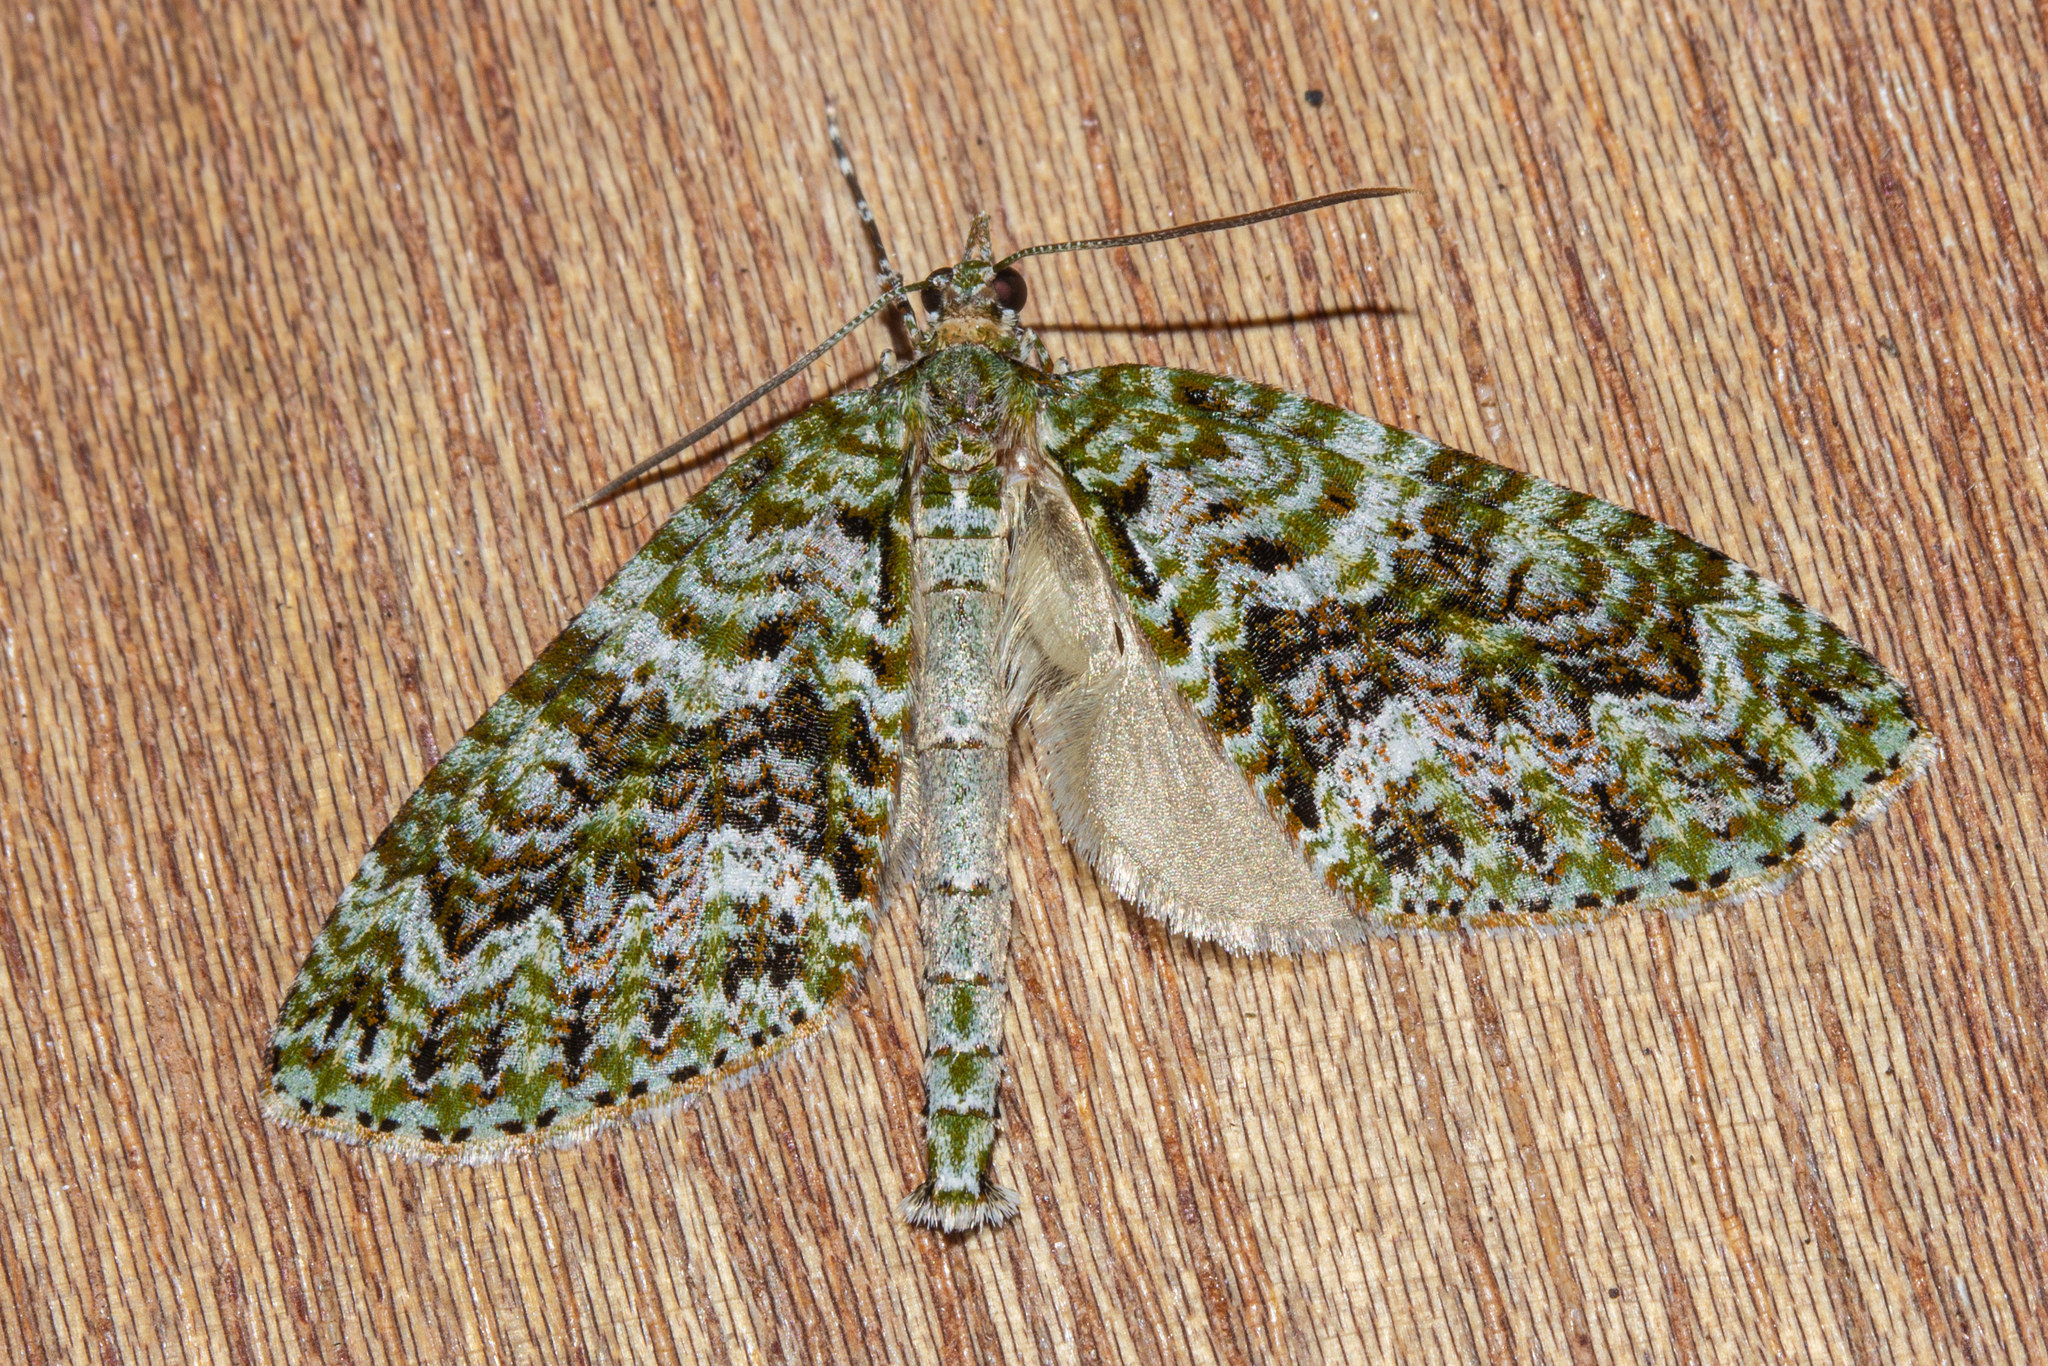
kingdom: Animalia
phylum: Arthropoda
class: Insecta
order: Lepidoptera
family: Geometridae
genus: Tatosoma
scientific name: Tatosoma agrionata
